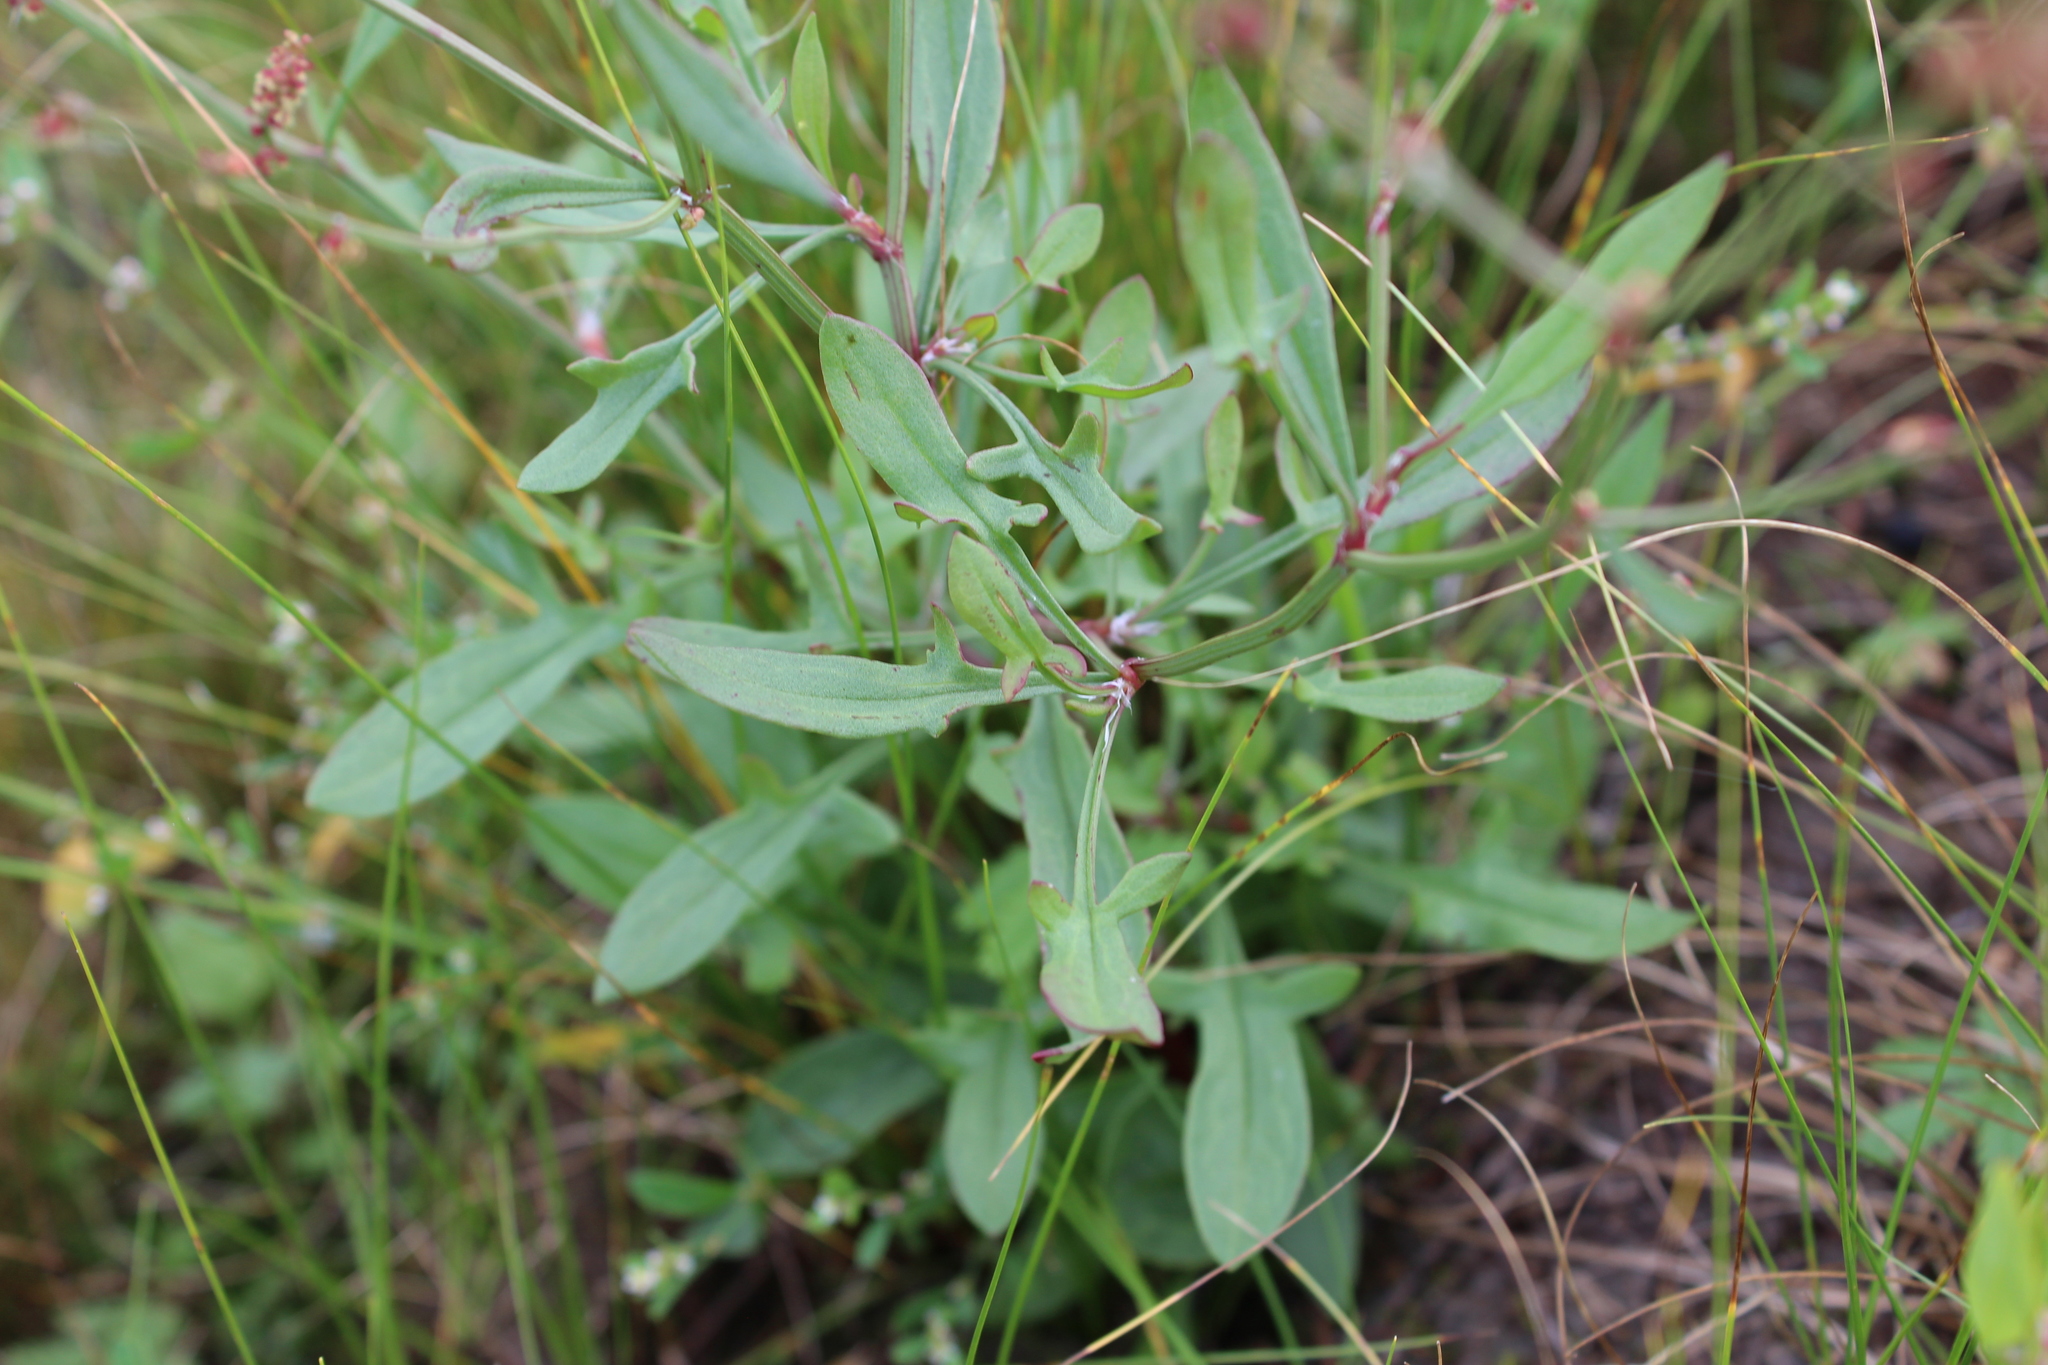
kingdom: Plantae
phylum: Tracheophyta
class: Magnoliopsida
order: Caryophyllales
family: Polygonaceae
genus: Rumex
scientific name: Rumex acetosella
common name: Common sheep sorrel
